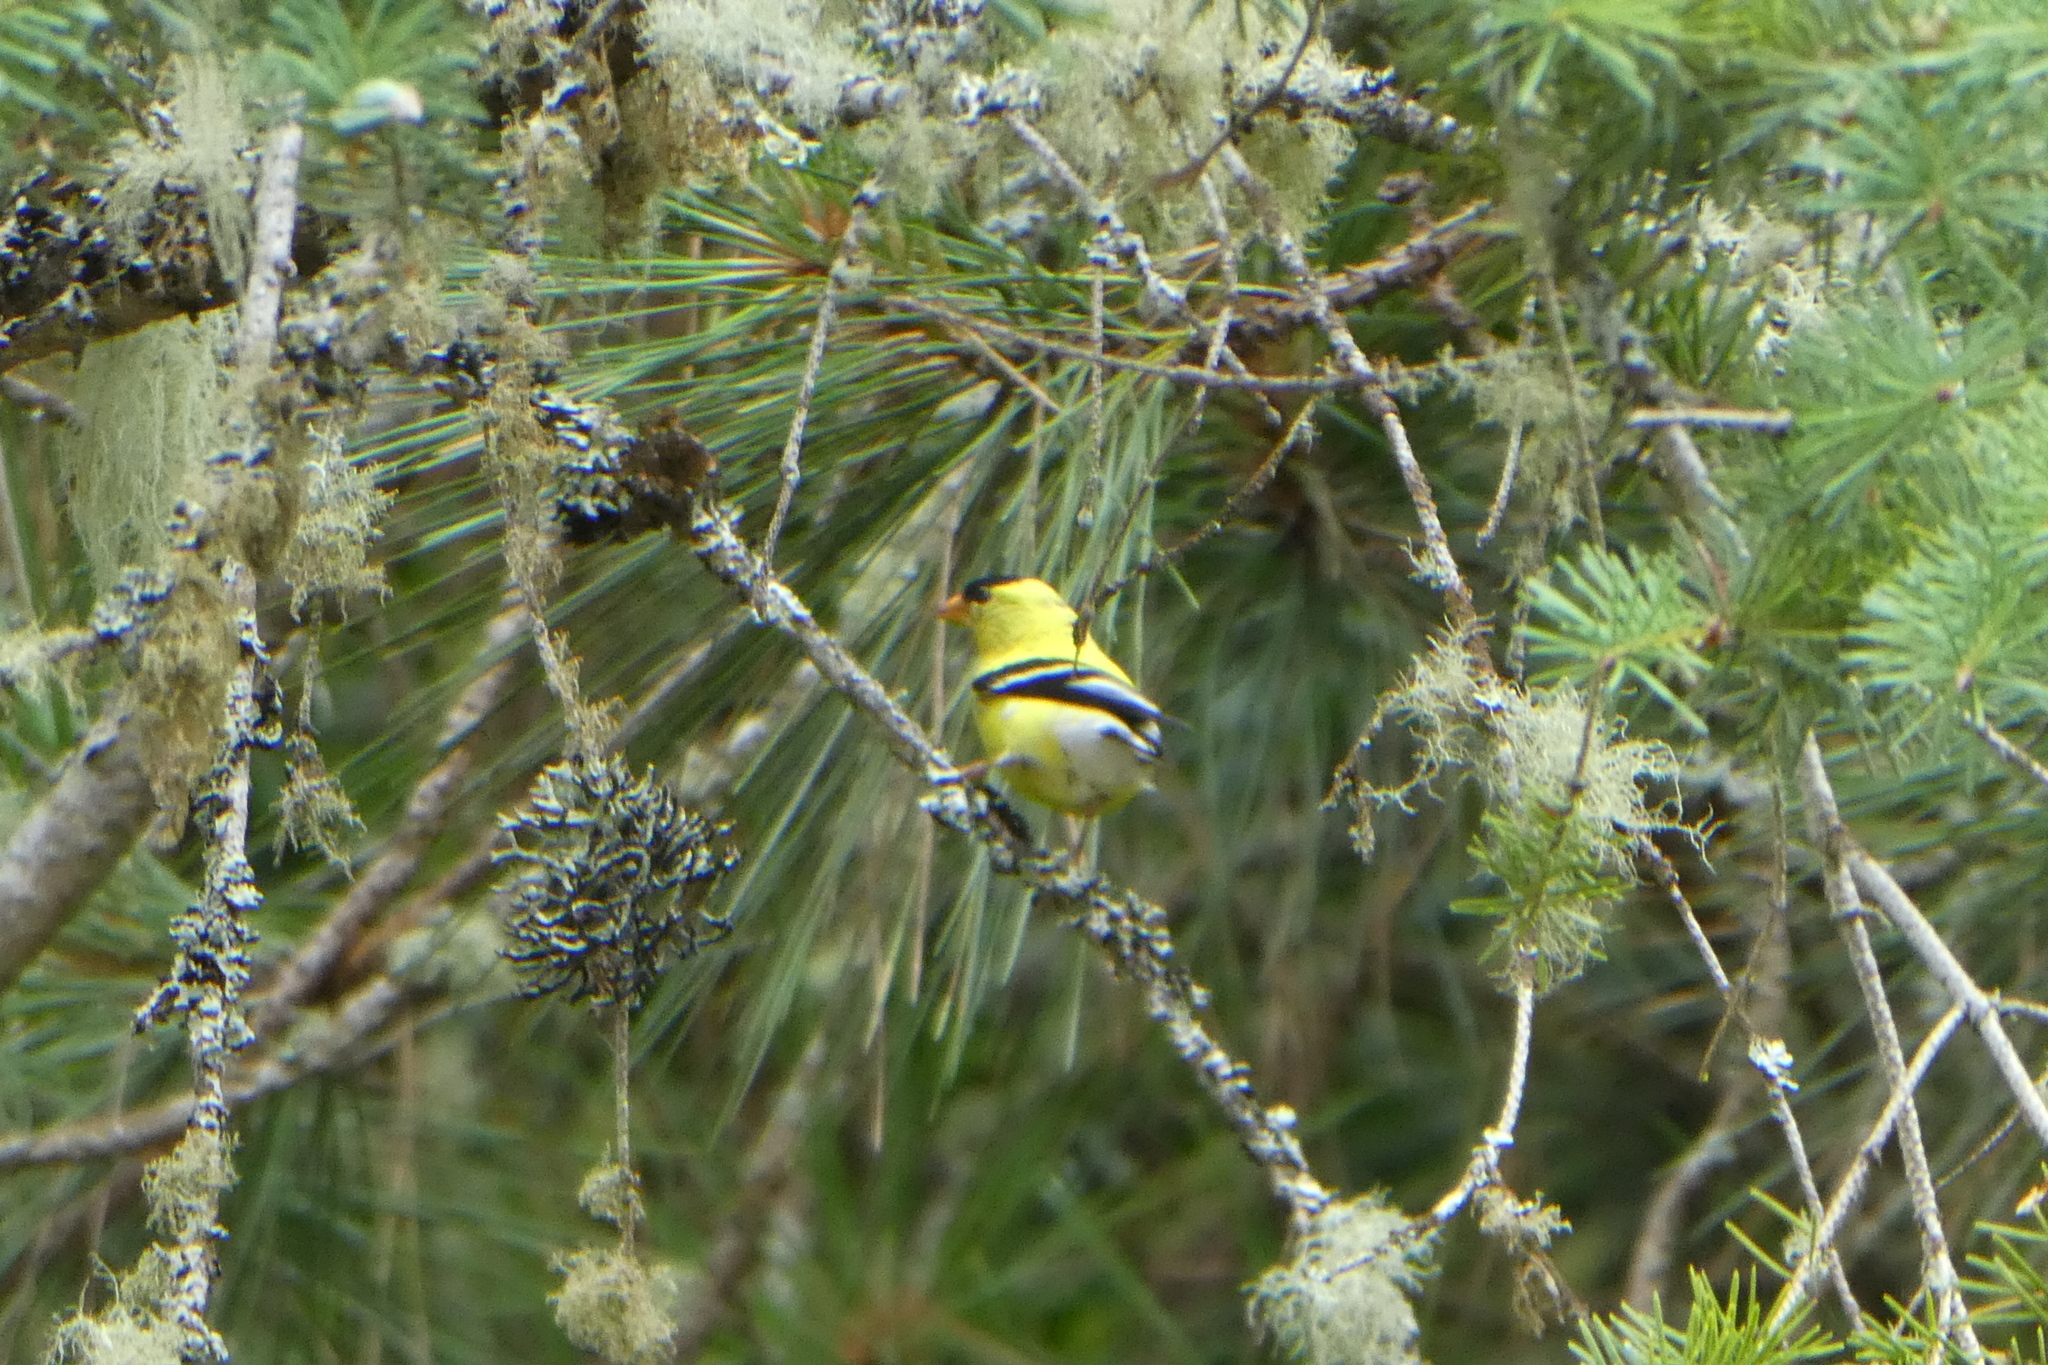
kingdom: Animalia
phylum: Chordata
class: Aves
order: Passeriformes
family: Fringillidae
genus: Spinus
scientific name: Spinus tristis
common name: American goldfinch
